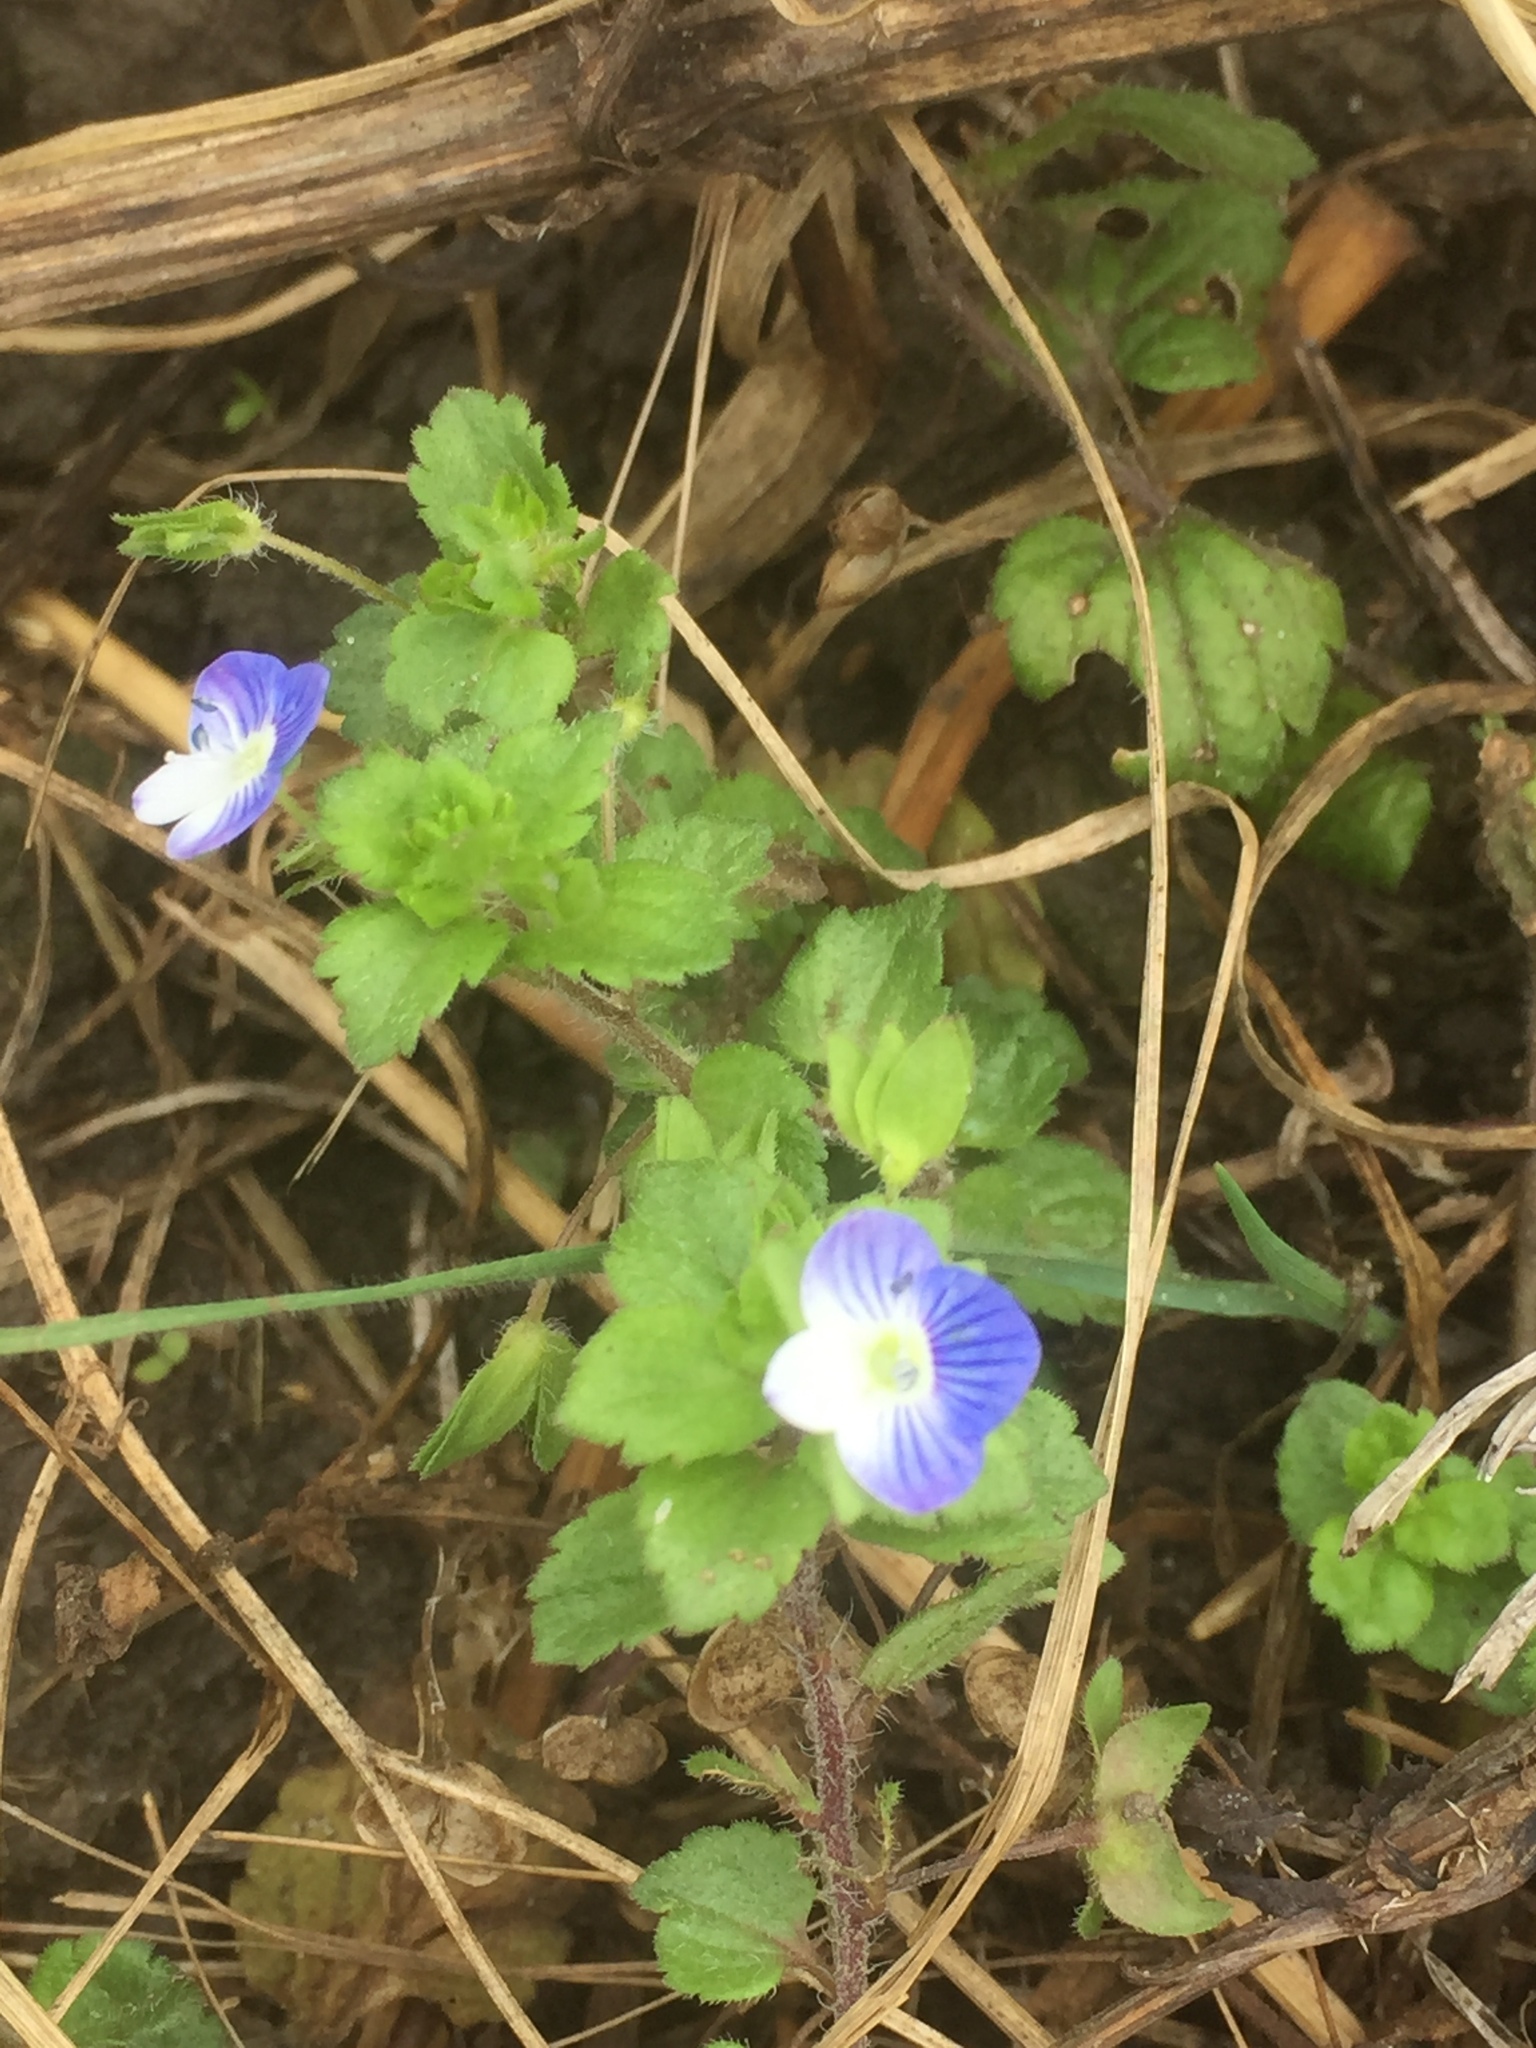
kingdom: Plantae
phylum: Tracheophyta
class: Magnoliopsida
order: Lamiales
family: Plantaginaceae
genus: Veronica
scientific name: Veronica persica
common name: Common field-speedwell
